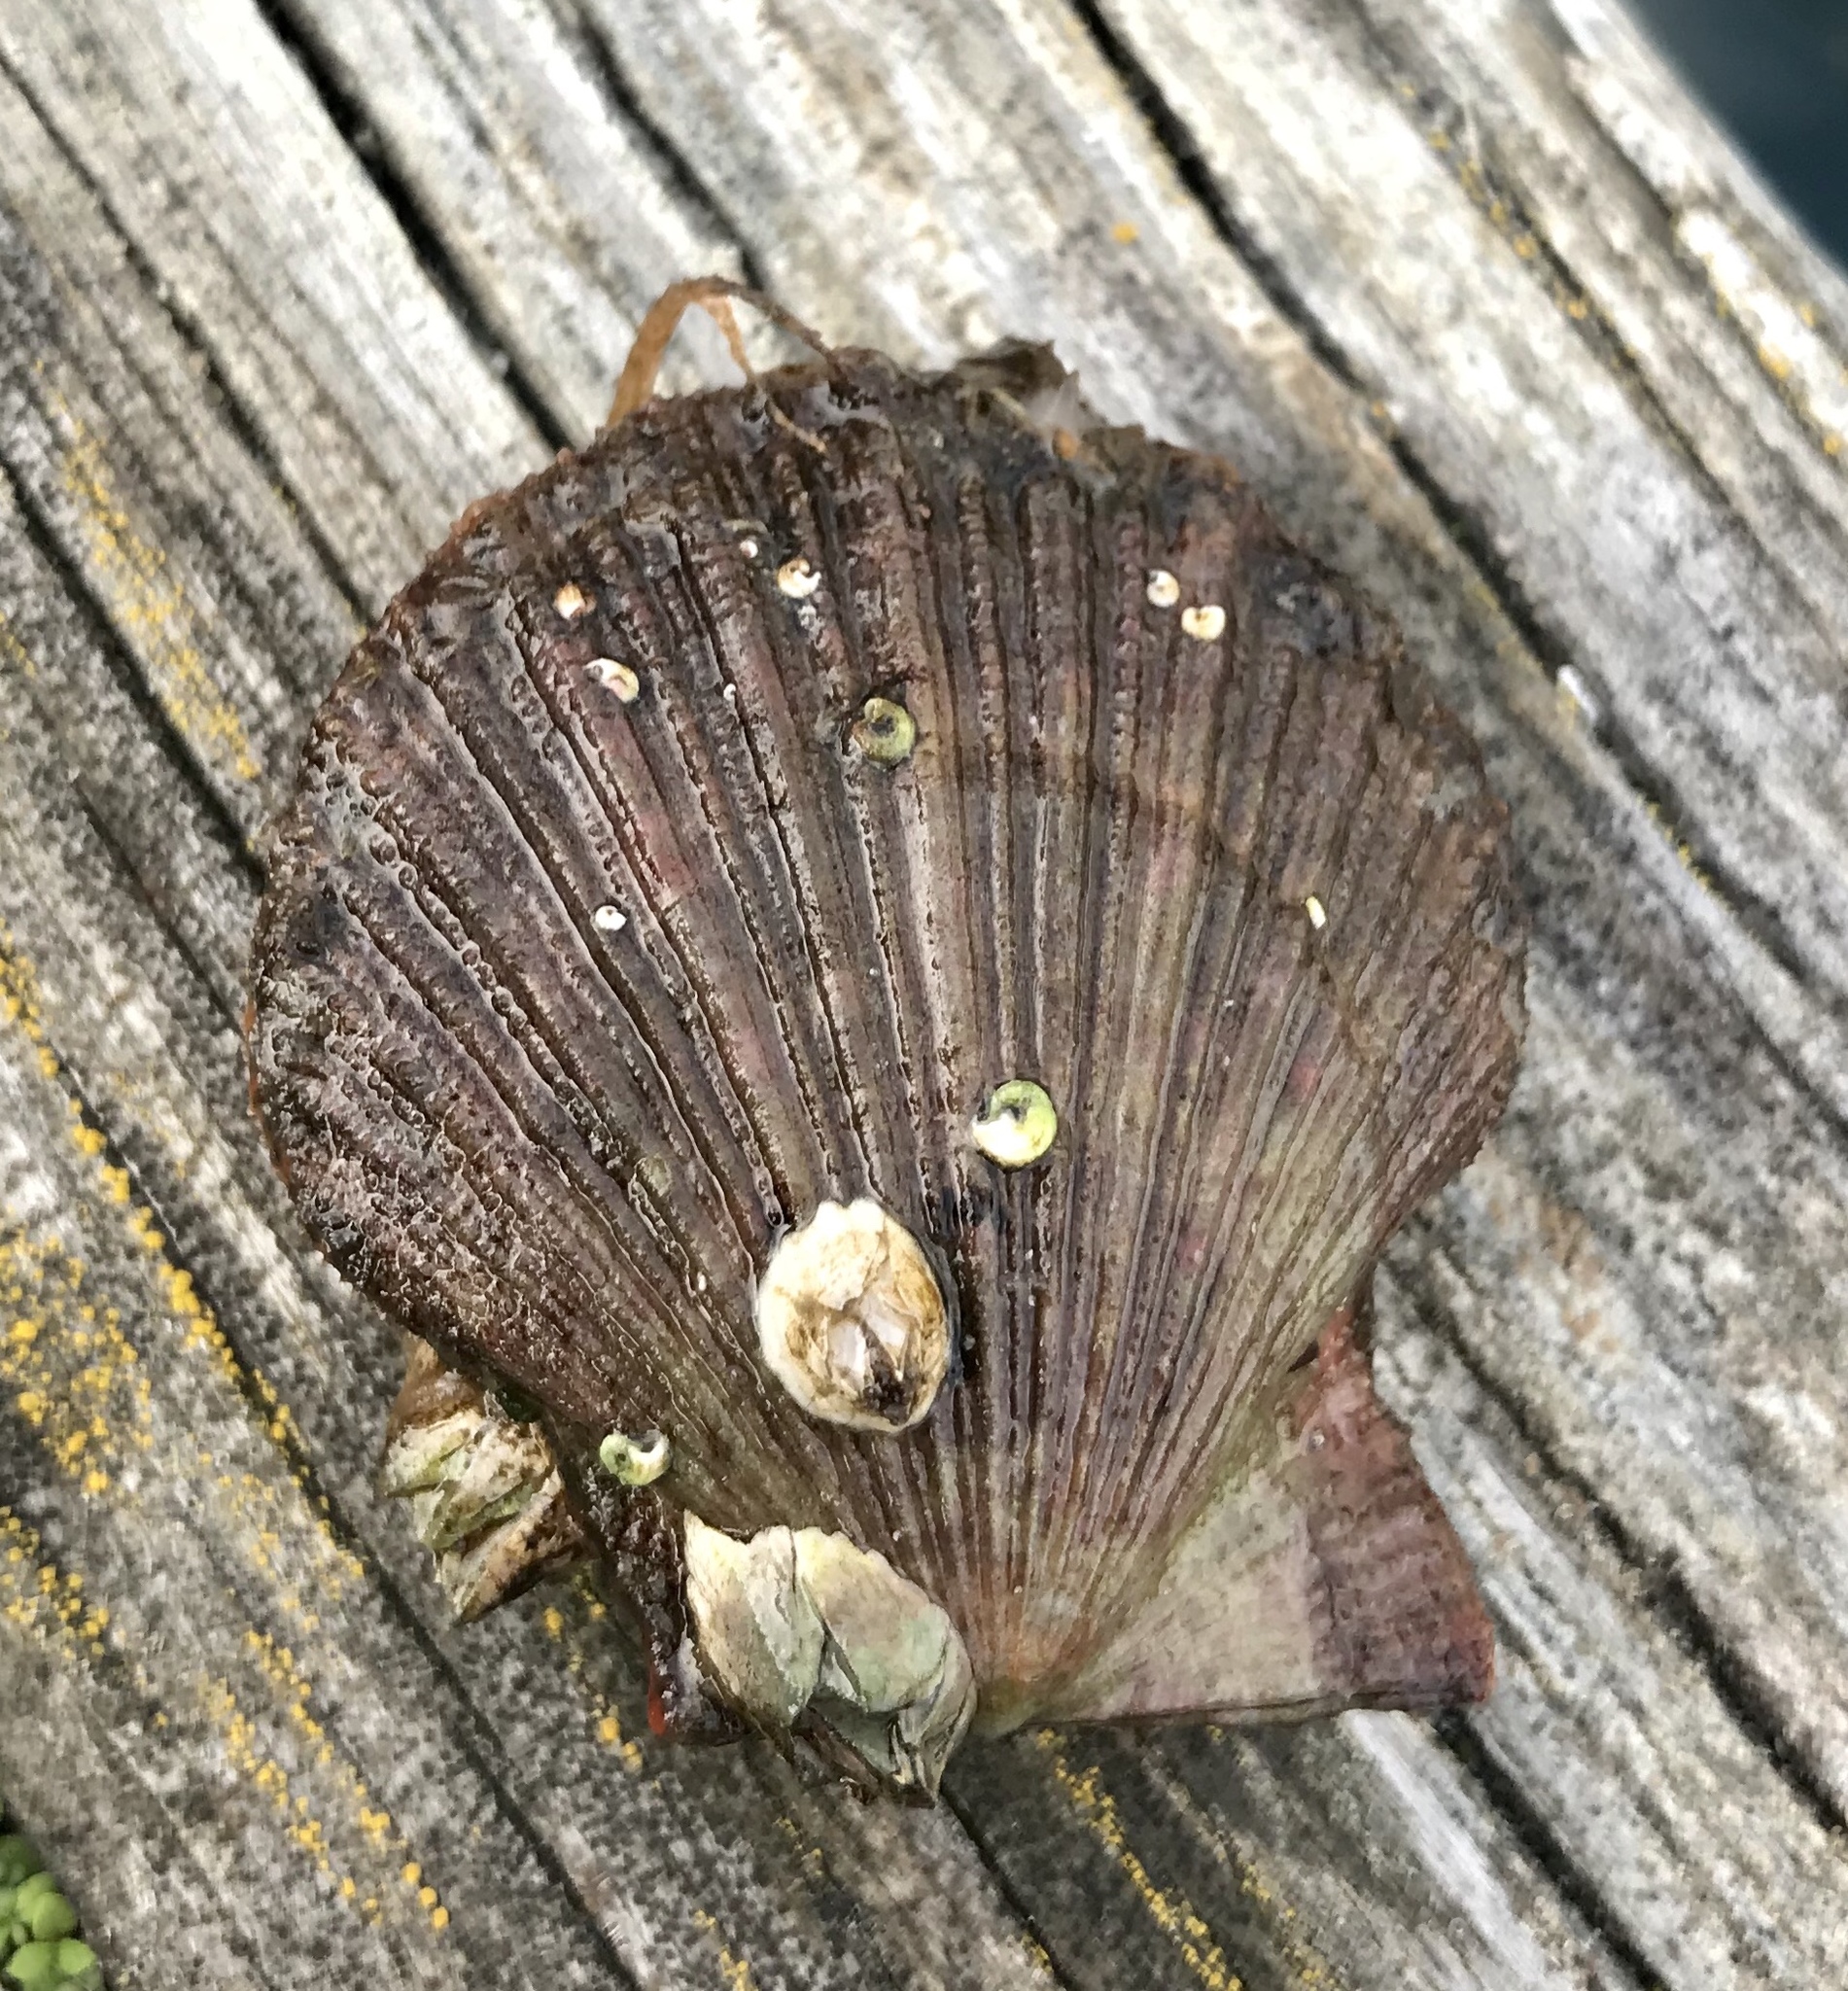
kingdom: Animalia
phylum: Mollusca
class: Bivalvia
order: Pectinida
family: Pectinidae
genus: Chlamys
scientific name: Chlamys hastata
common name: Spear scallop
